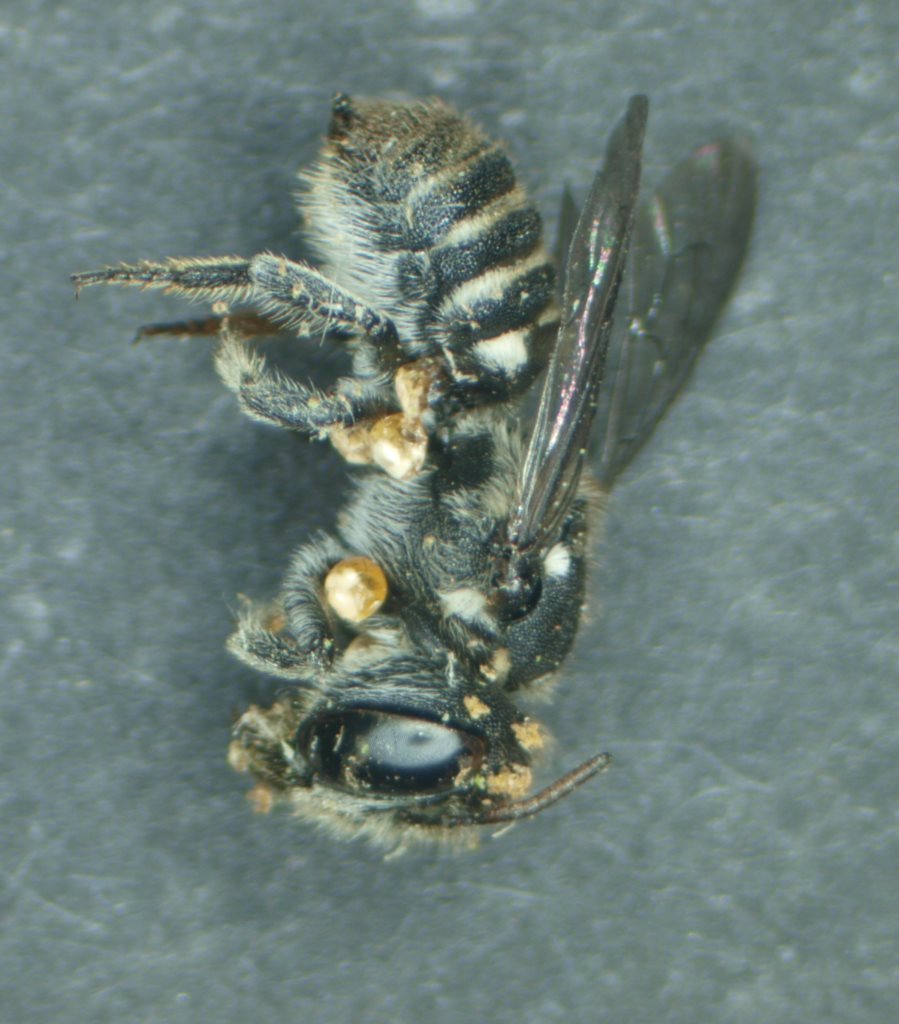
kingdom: Animalia
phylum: Arthropoda
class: Insecta
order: Hymenoptera
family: Megachilidae
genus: Megachile
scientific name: Megachile apicata
